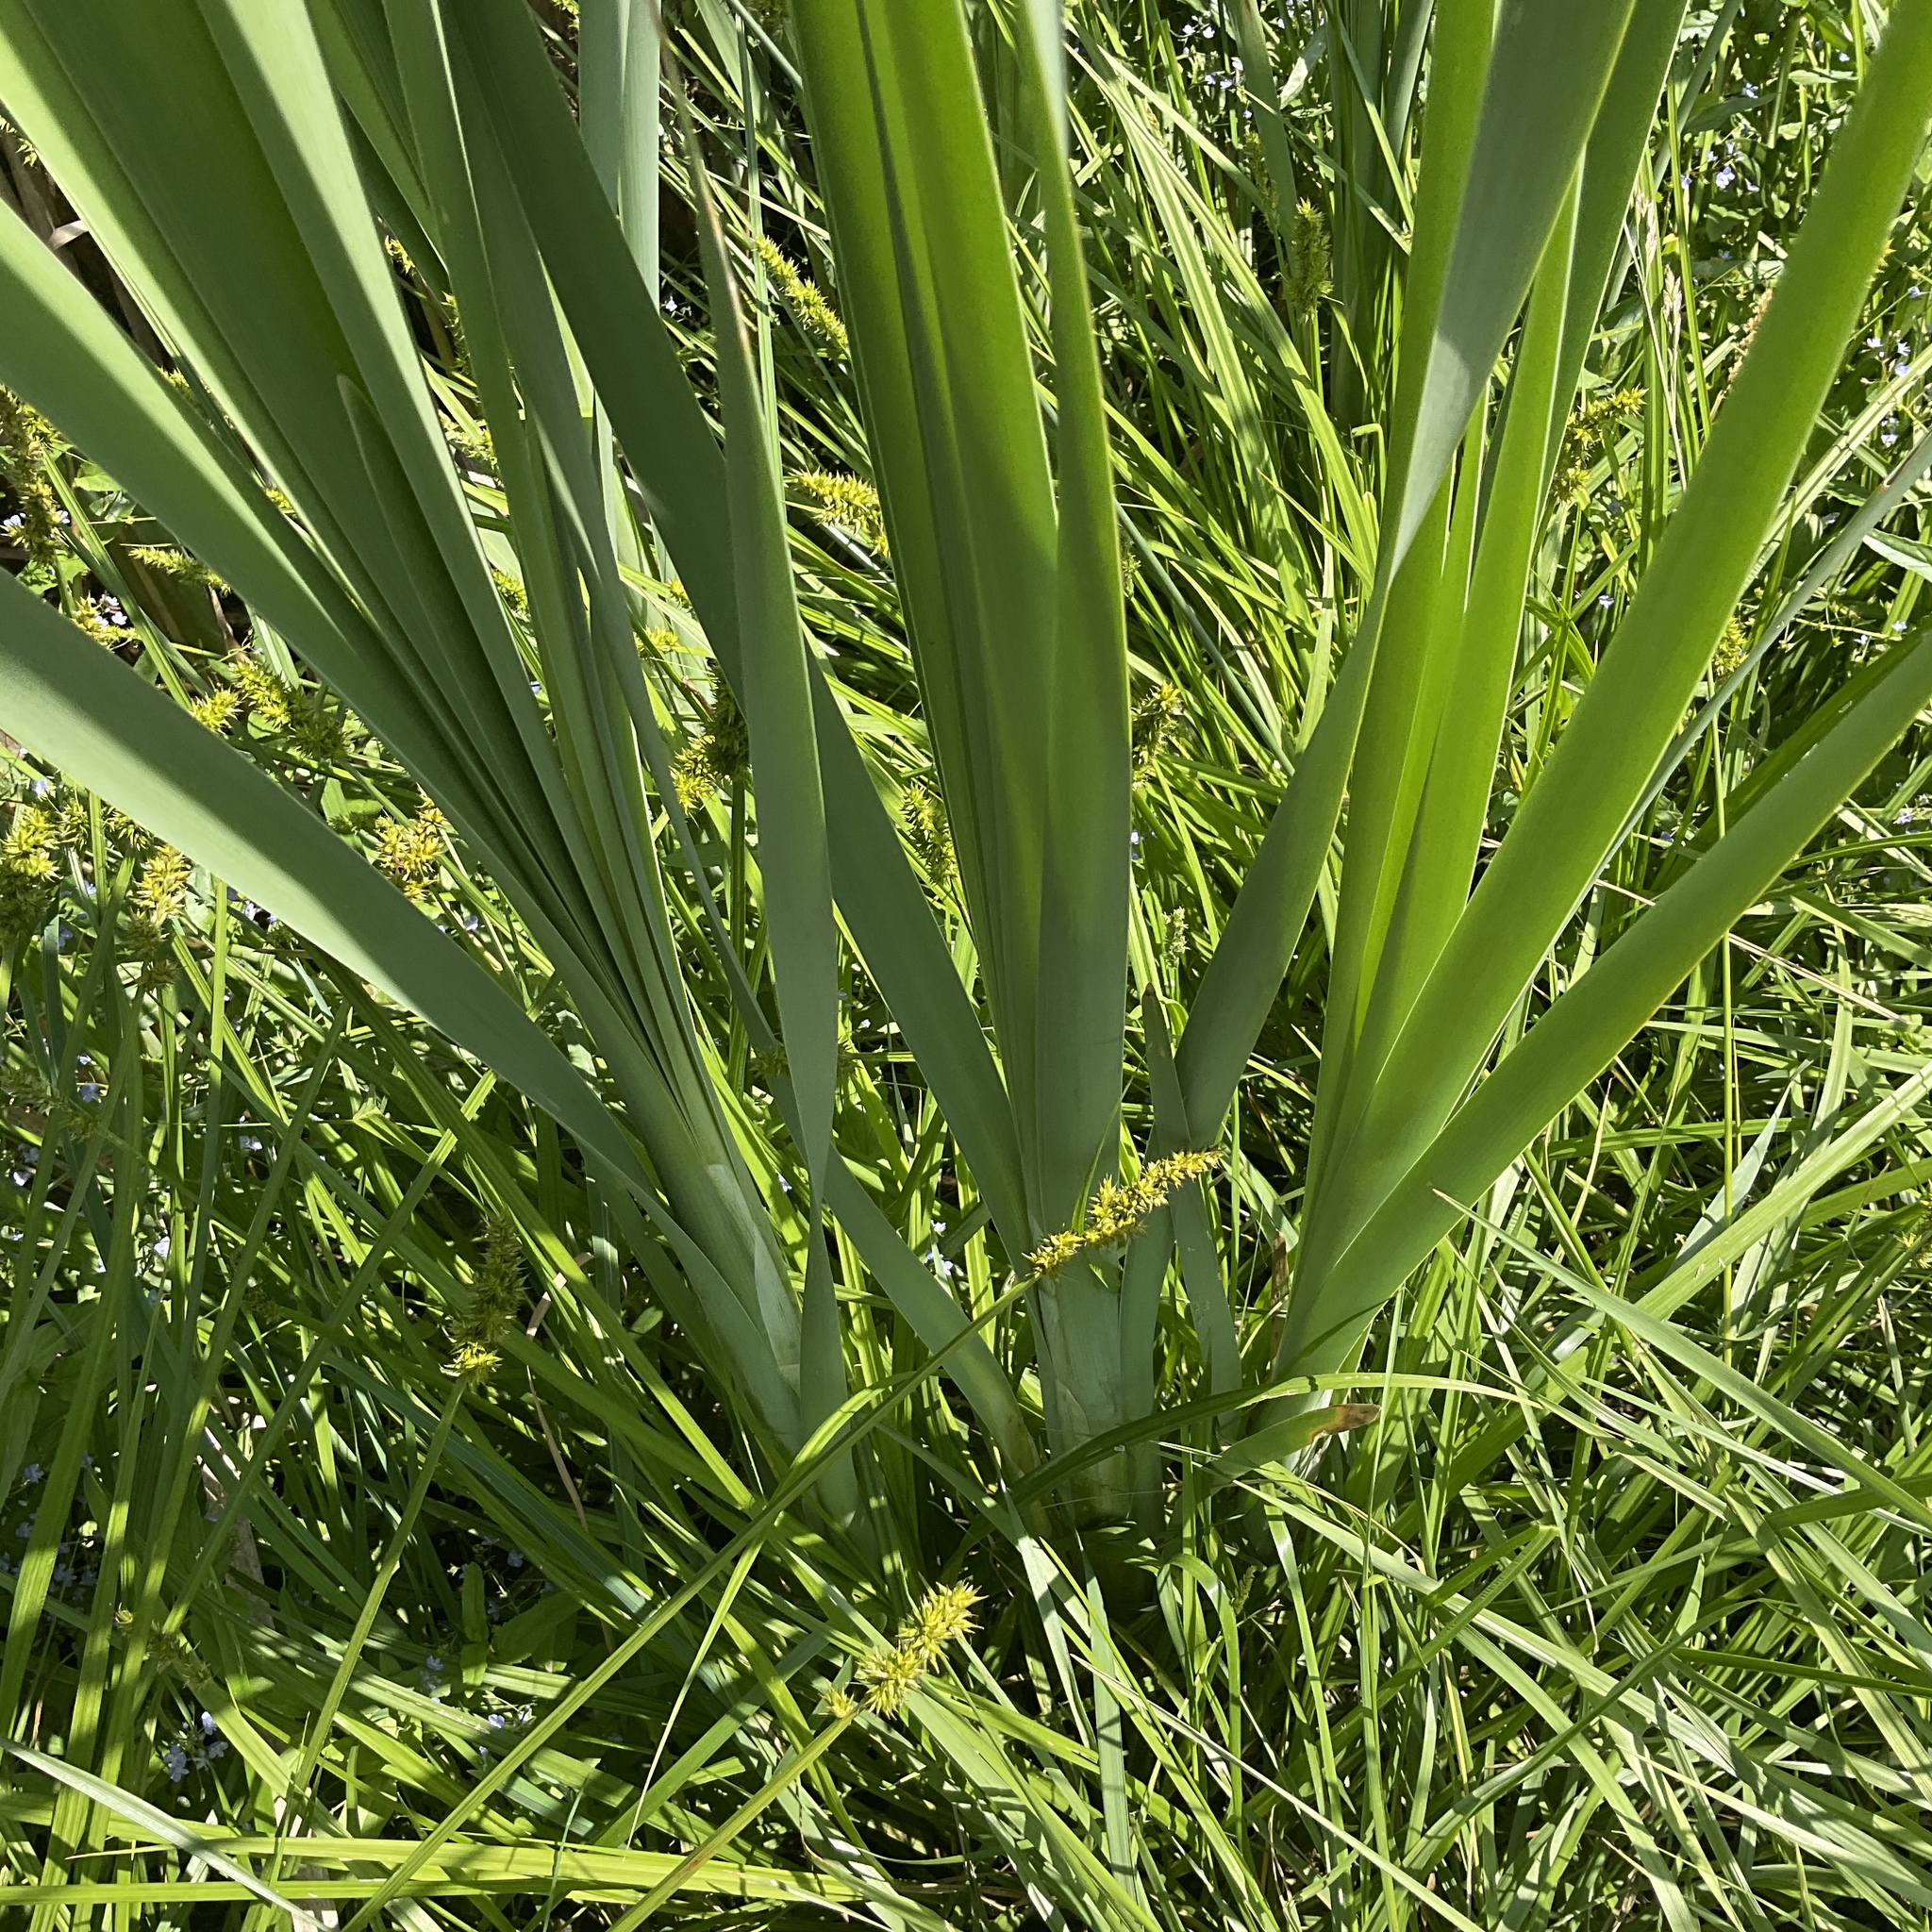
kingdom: Plantae
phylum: Tracheophyta
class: Liliopsida
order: Poales
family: Typhaceae
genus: Typha
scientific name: Typha latifolia
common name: Broadleaf cattail
